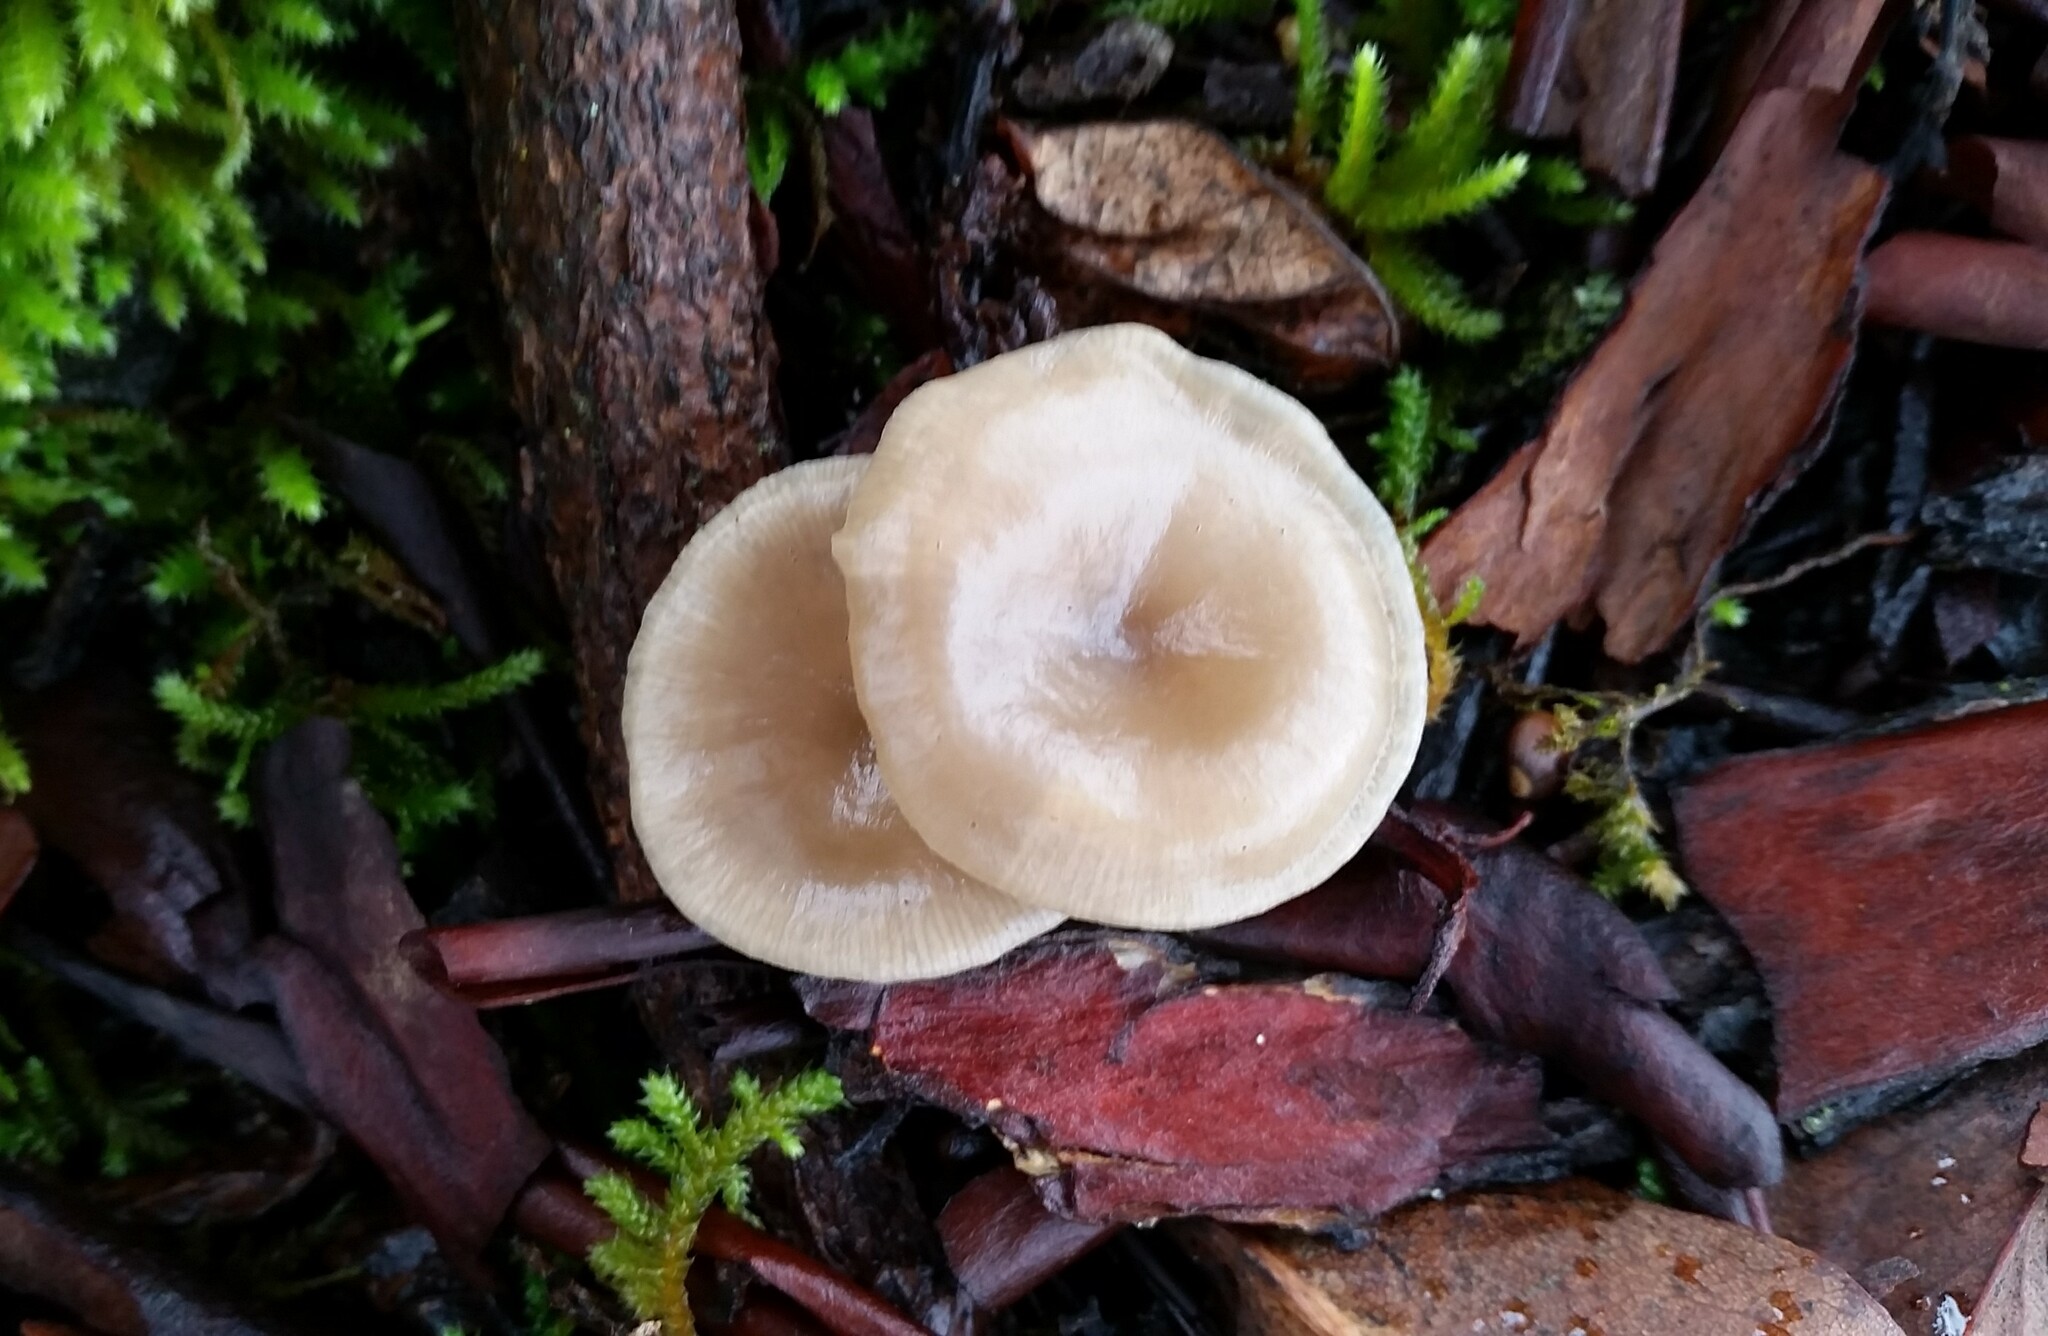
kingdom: Fungi
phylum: Basidiomycota
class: Agaricomycetes
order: Agaricales
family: Tricholomataceae
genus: Clitocybe
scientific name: Clitocybe fragrans
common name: Fragrant funnel
